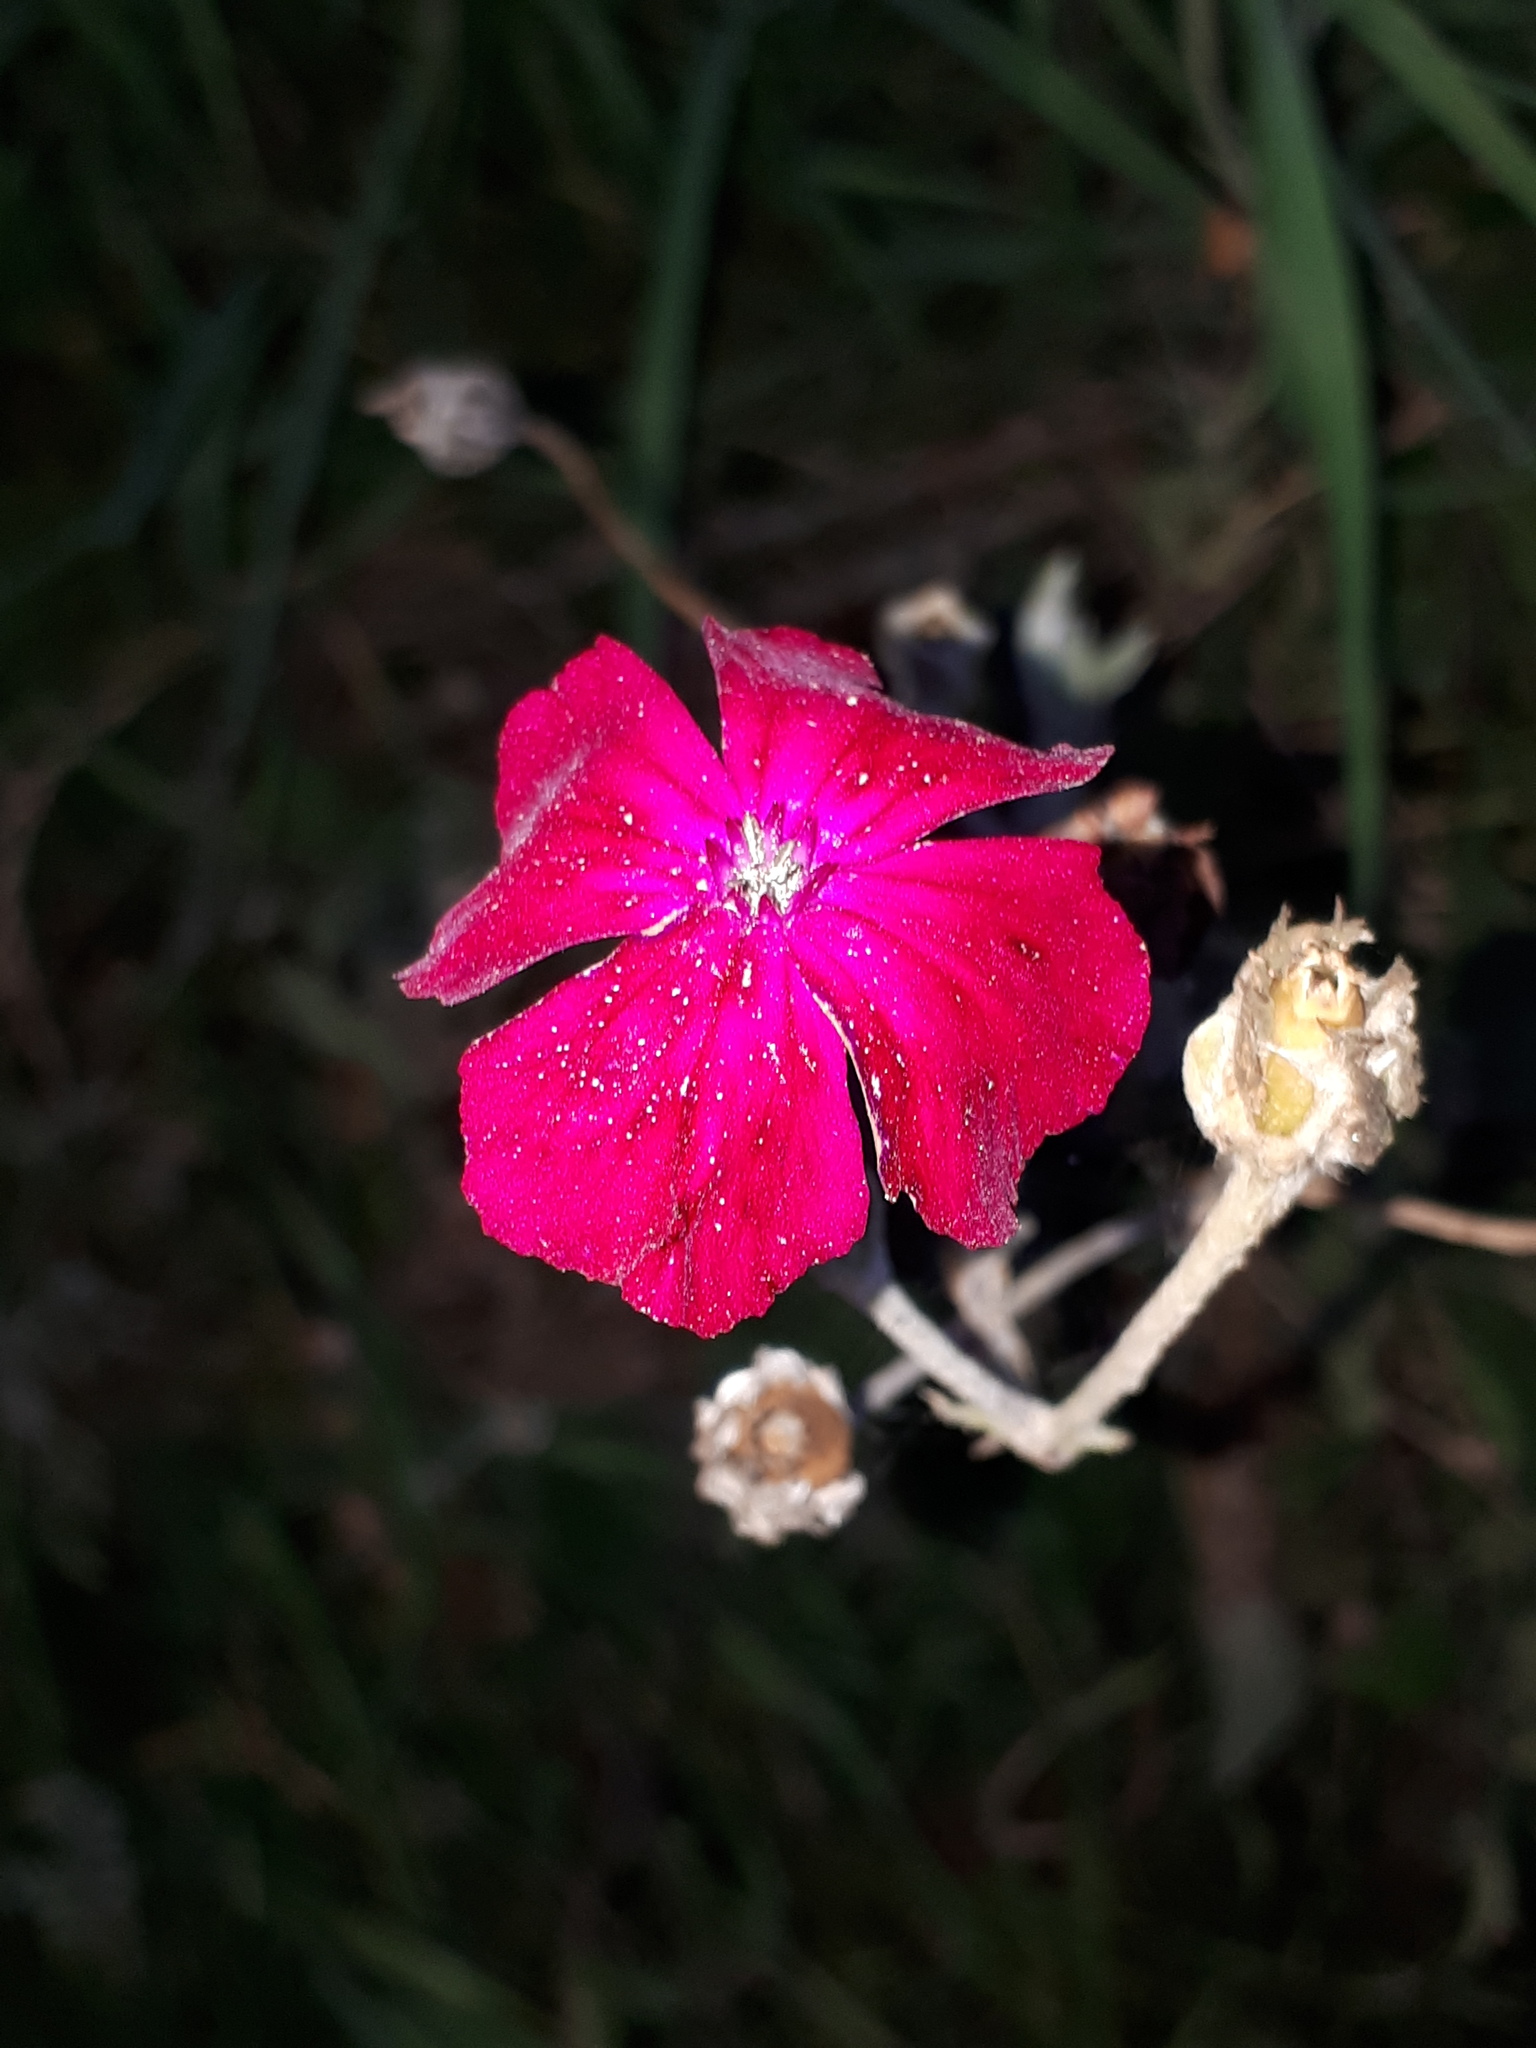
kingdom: Plantae
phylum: Tracheophyta
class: Magnoliopsida
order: Caryophyllales
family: Caryophyllaceae
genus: Silene
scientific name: Silene coronaria
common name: Rose campion
